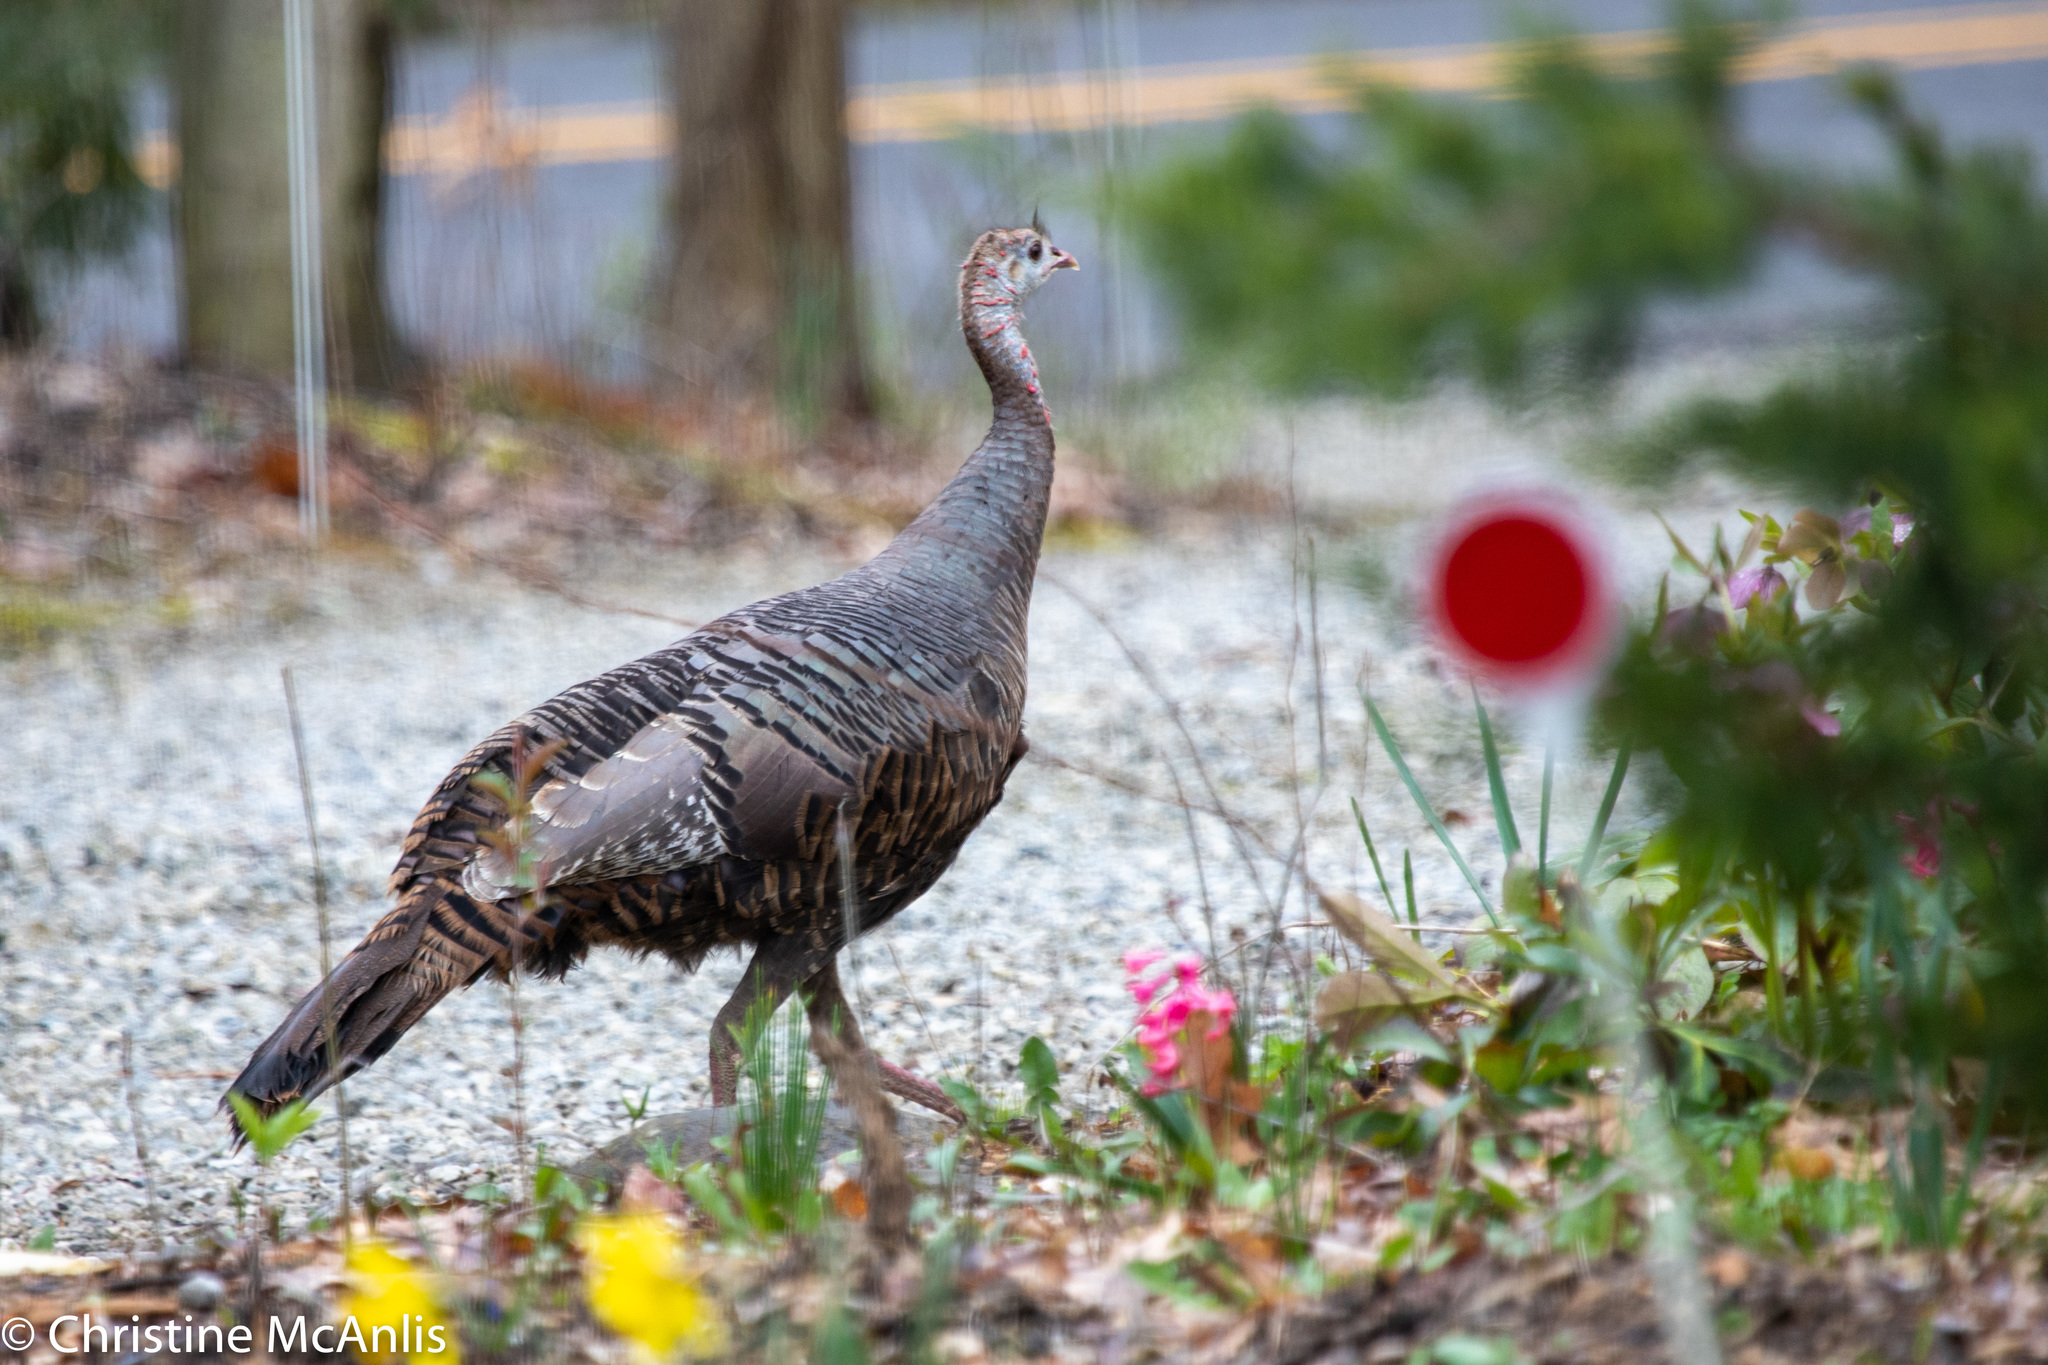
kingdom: Animalia
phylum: Chordata
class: Aves
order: Galliformes
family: Phasianidae
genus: Meleagris
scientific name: Meleagris gallopavo
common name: Wild turkey
